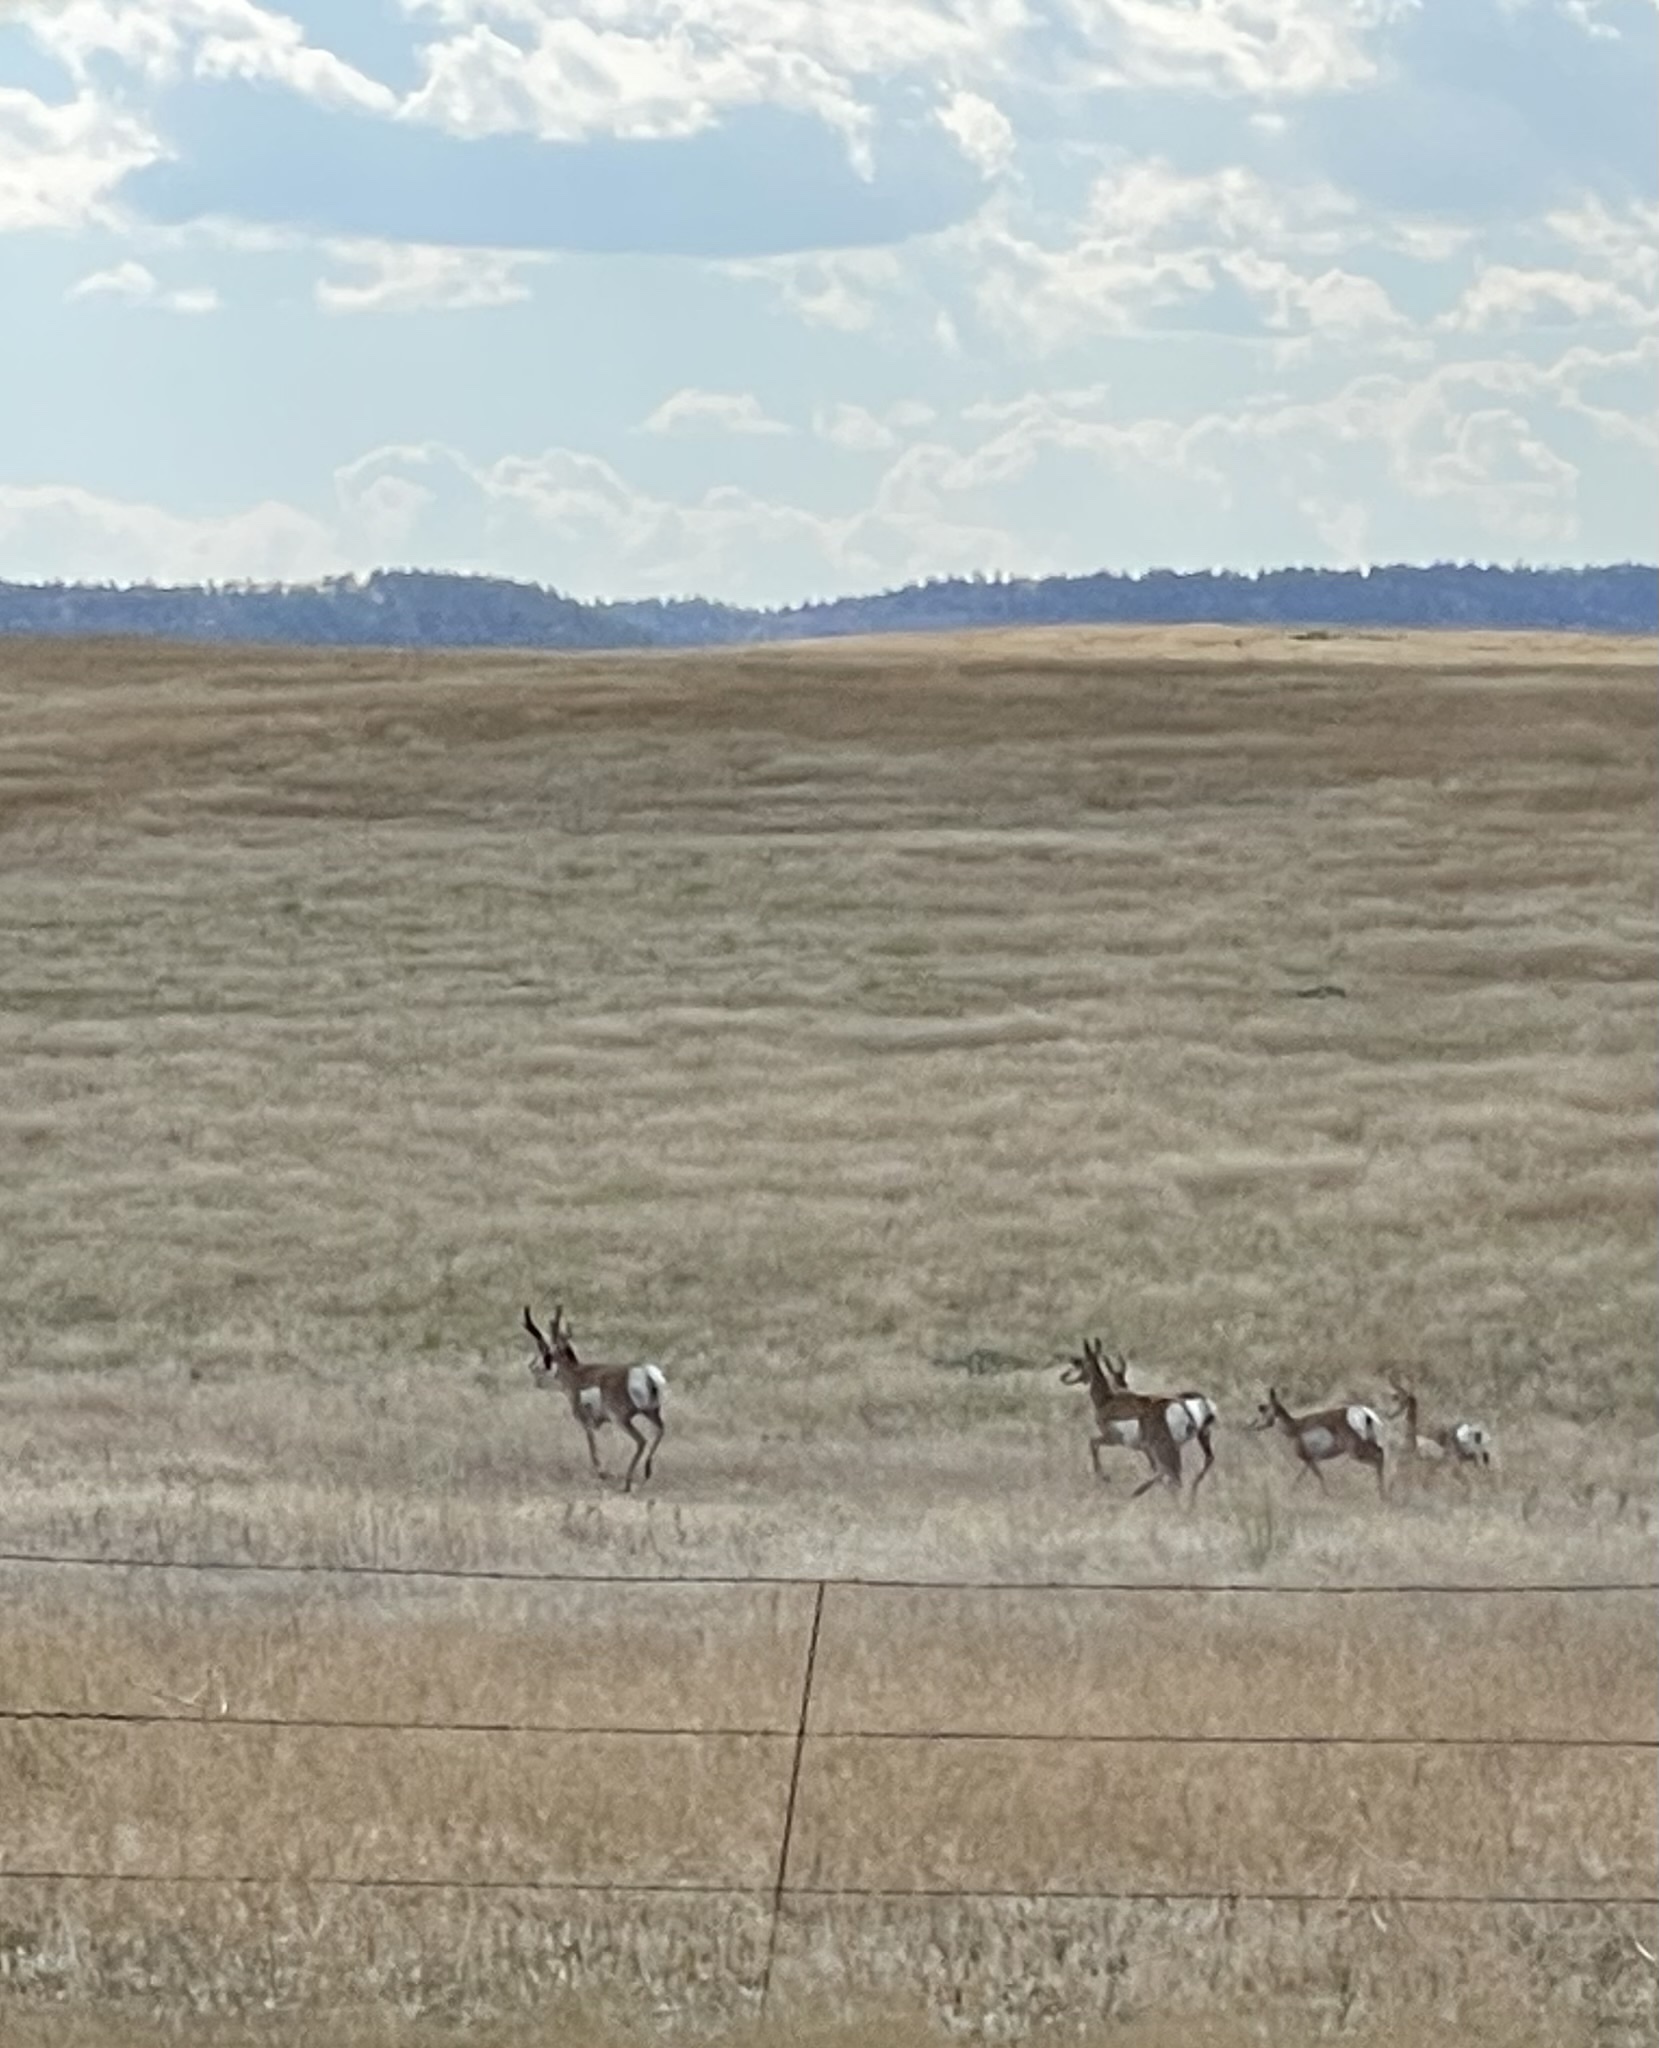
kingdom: Animalia
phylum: Chordata
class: Mammalia
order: Artiodactyla
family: Antilocapridae
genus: Antilocapra
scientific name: Antilocapra americana
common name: Pronghorn
